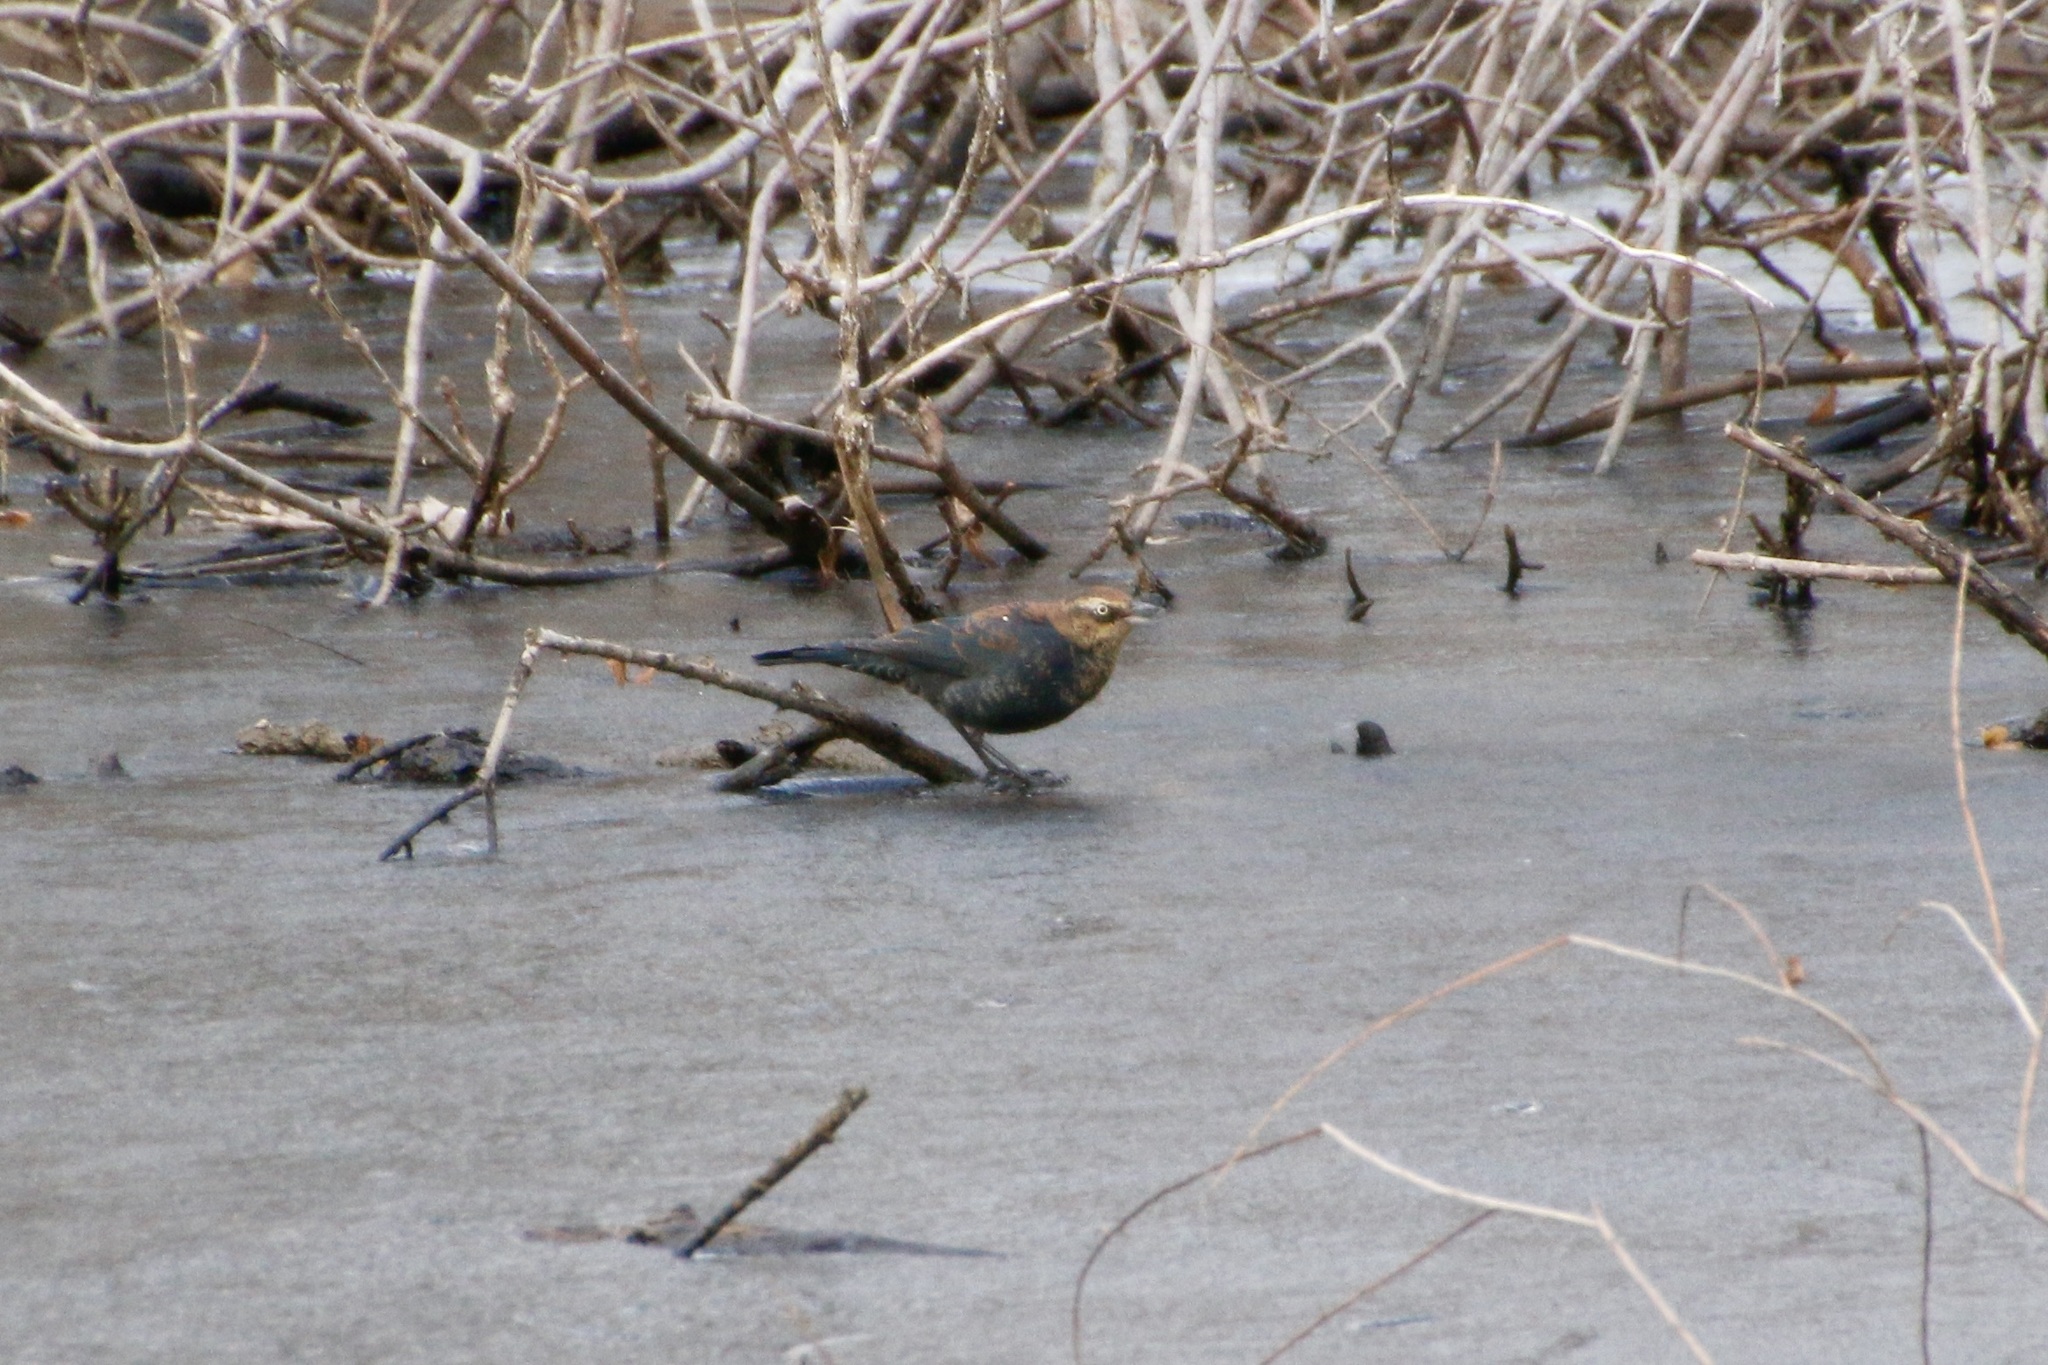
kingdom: Animalia
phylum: Chordata
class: Aves
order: Passeriformes
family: Icteridae
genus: Euphagus
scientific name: Euphagus carolinus
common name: Rusty blackbird
